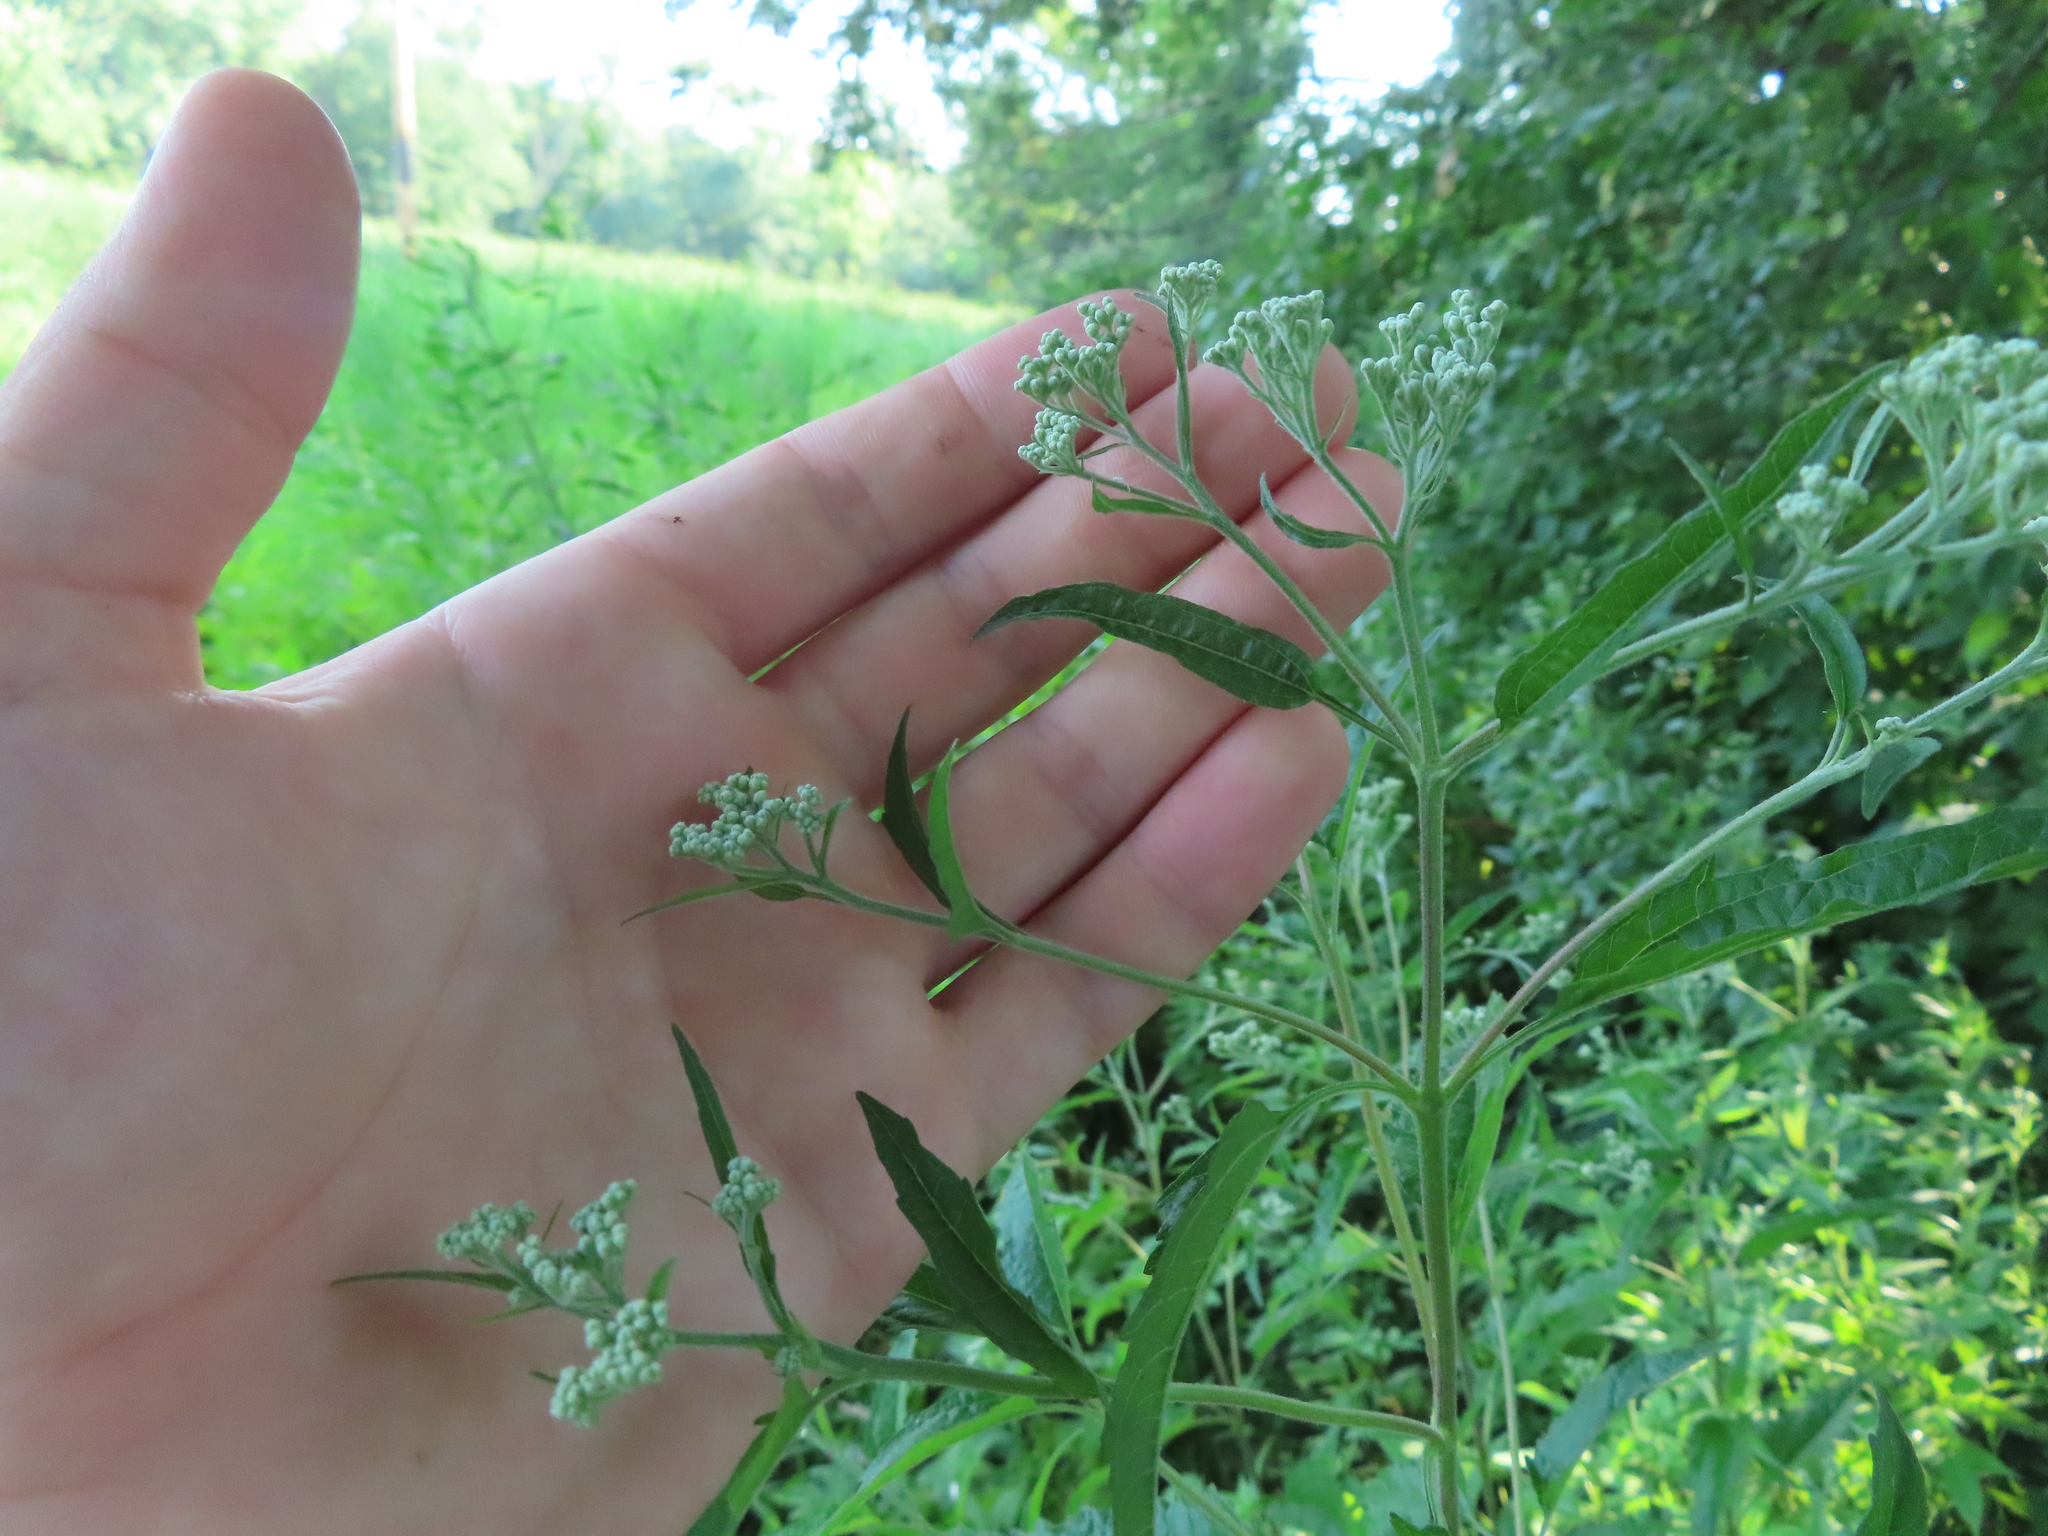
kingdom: Plantae
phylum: Tracheophyta
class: Magnoliopsida
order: Asterales
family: Asteraceae
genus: Eupatorium
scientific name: Eupatorium serotinum
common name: Late boneset
